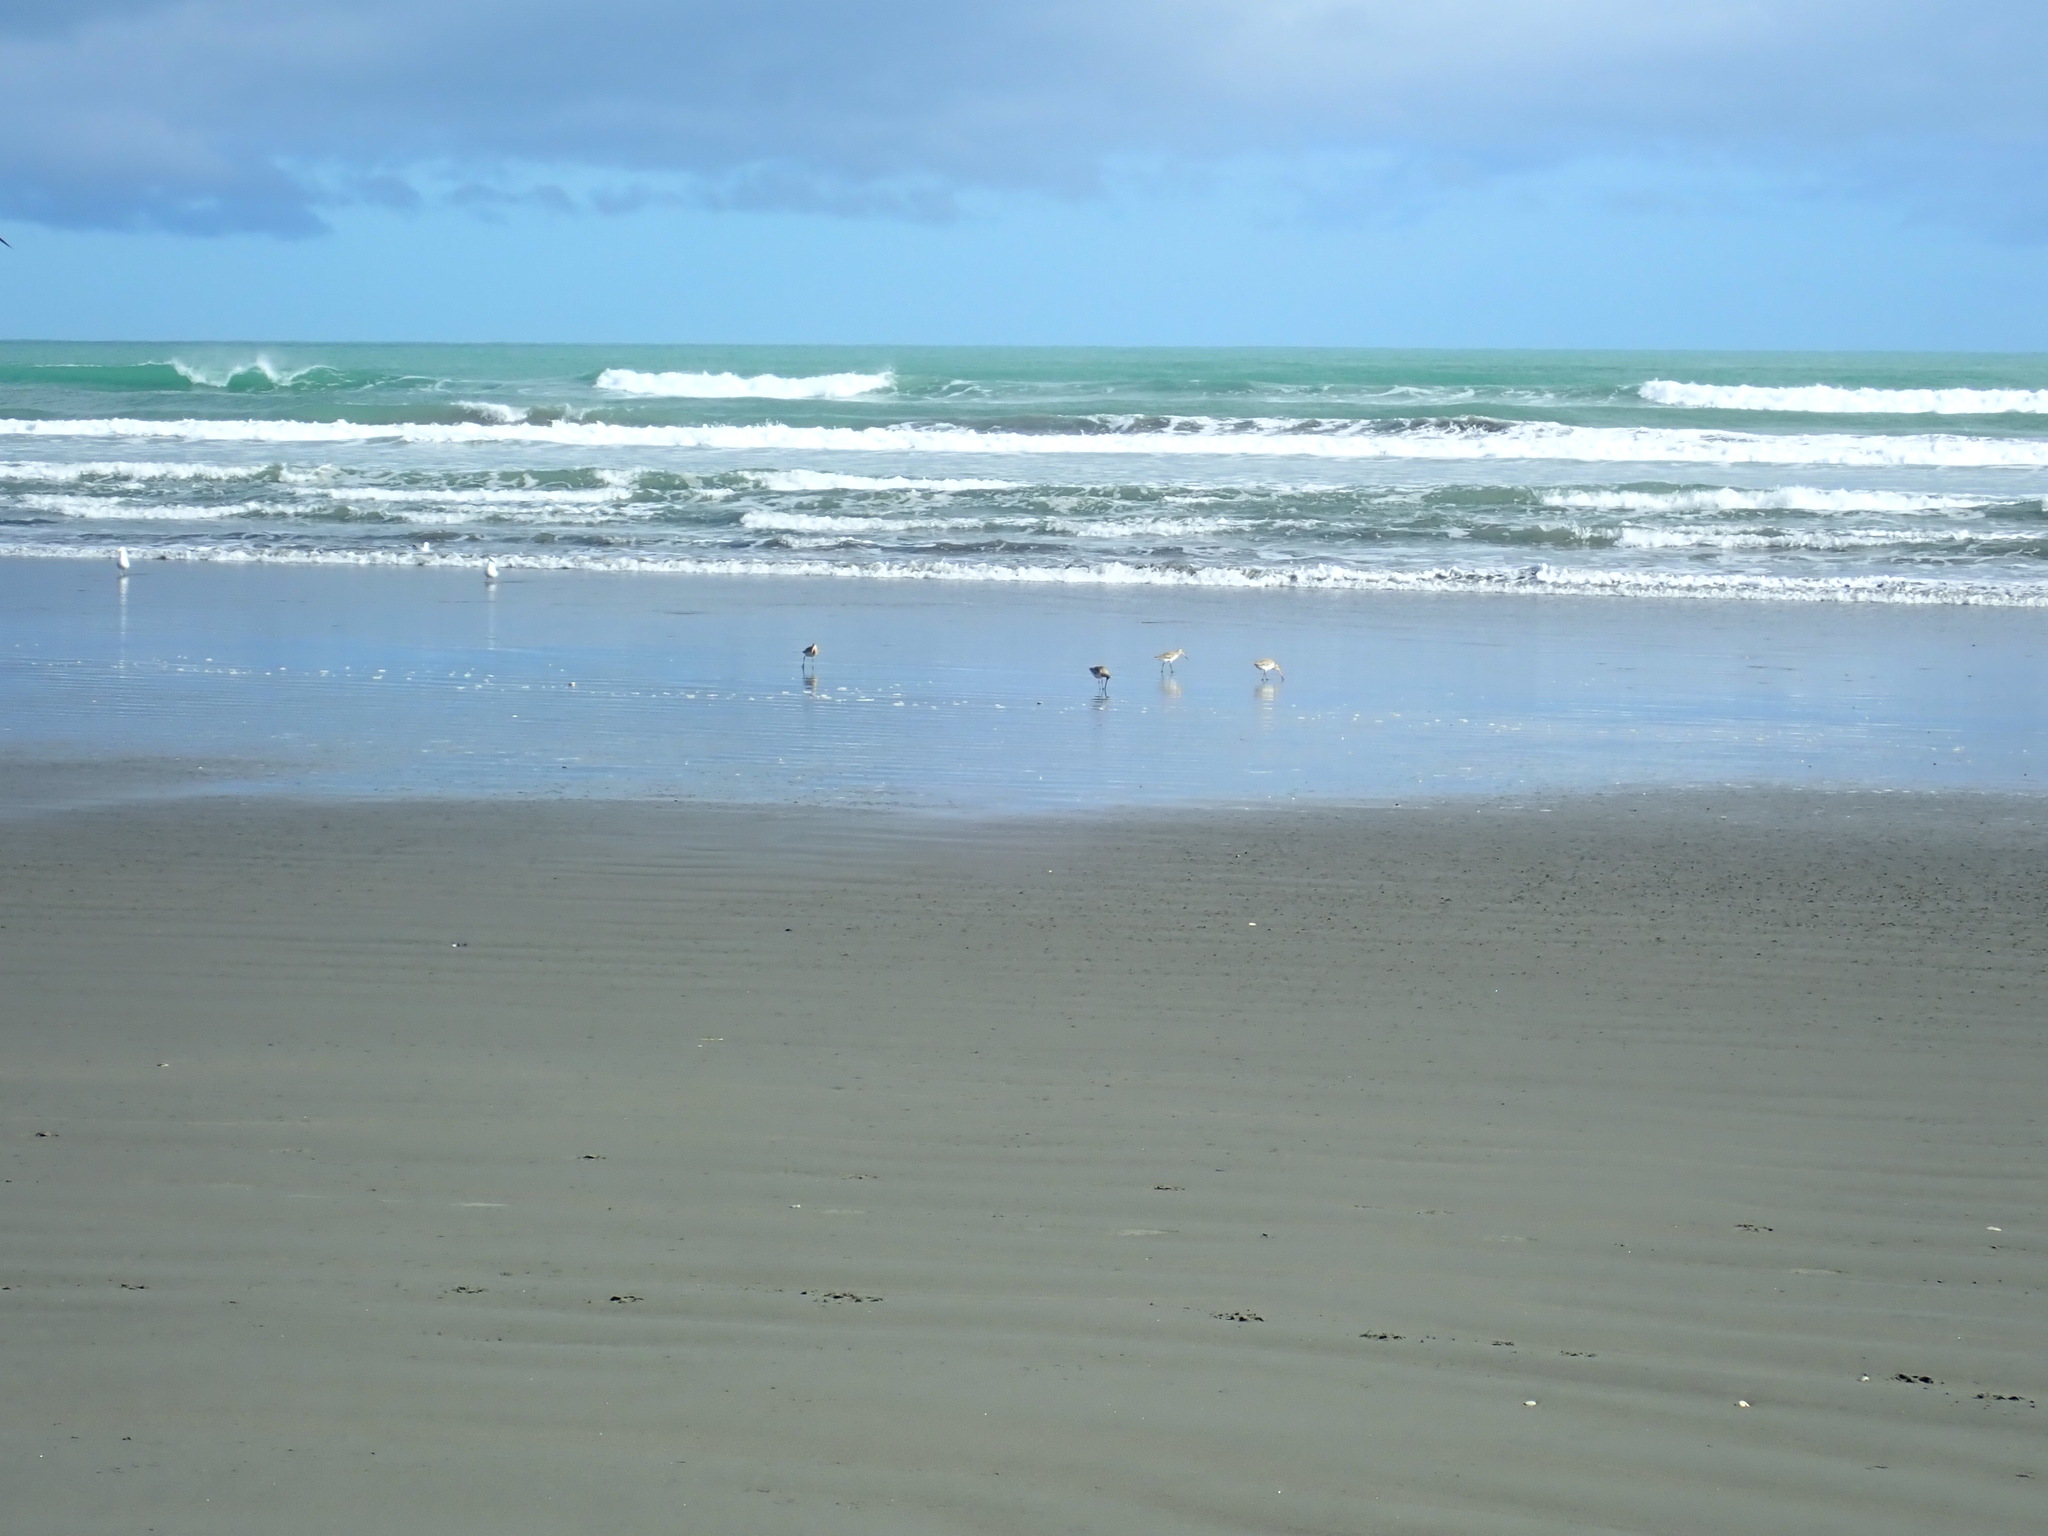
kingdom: Animalia
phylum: Chordata
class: Aves
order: Charadriiformes
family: Scolopacidae
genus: Limosa
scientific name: Limosa lapponica
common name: Bar-tailed godwit
